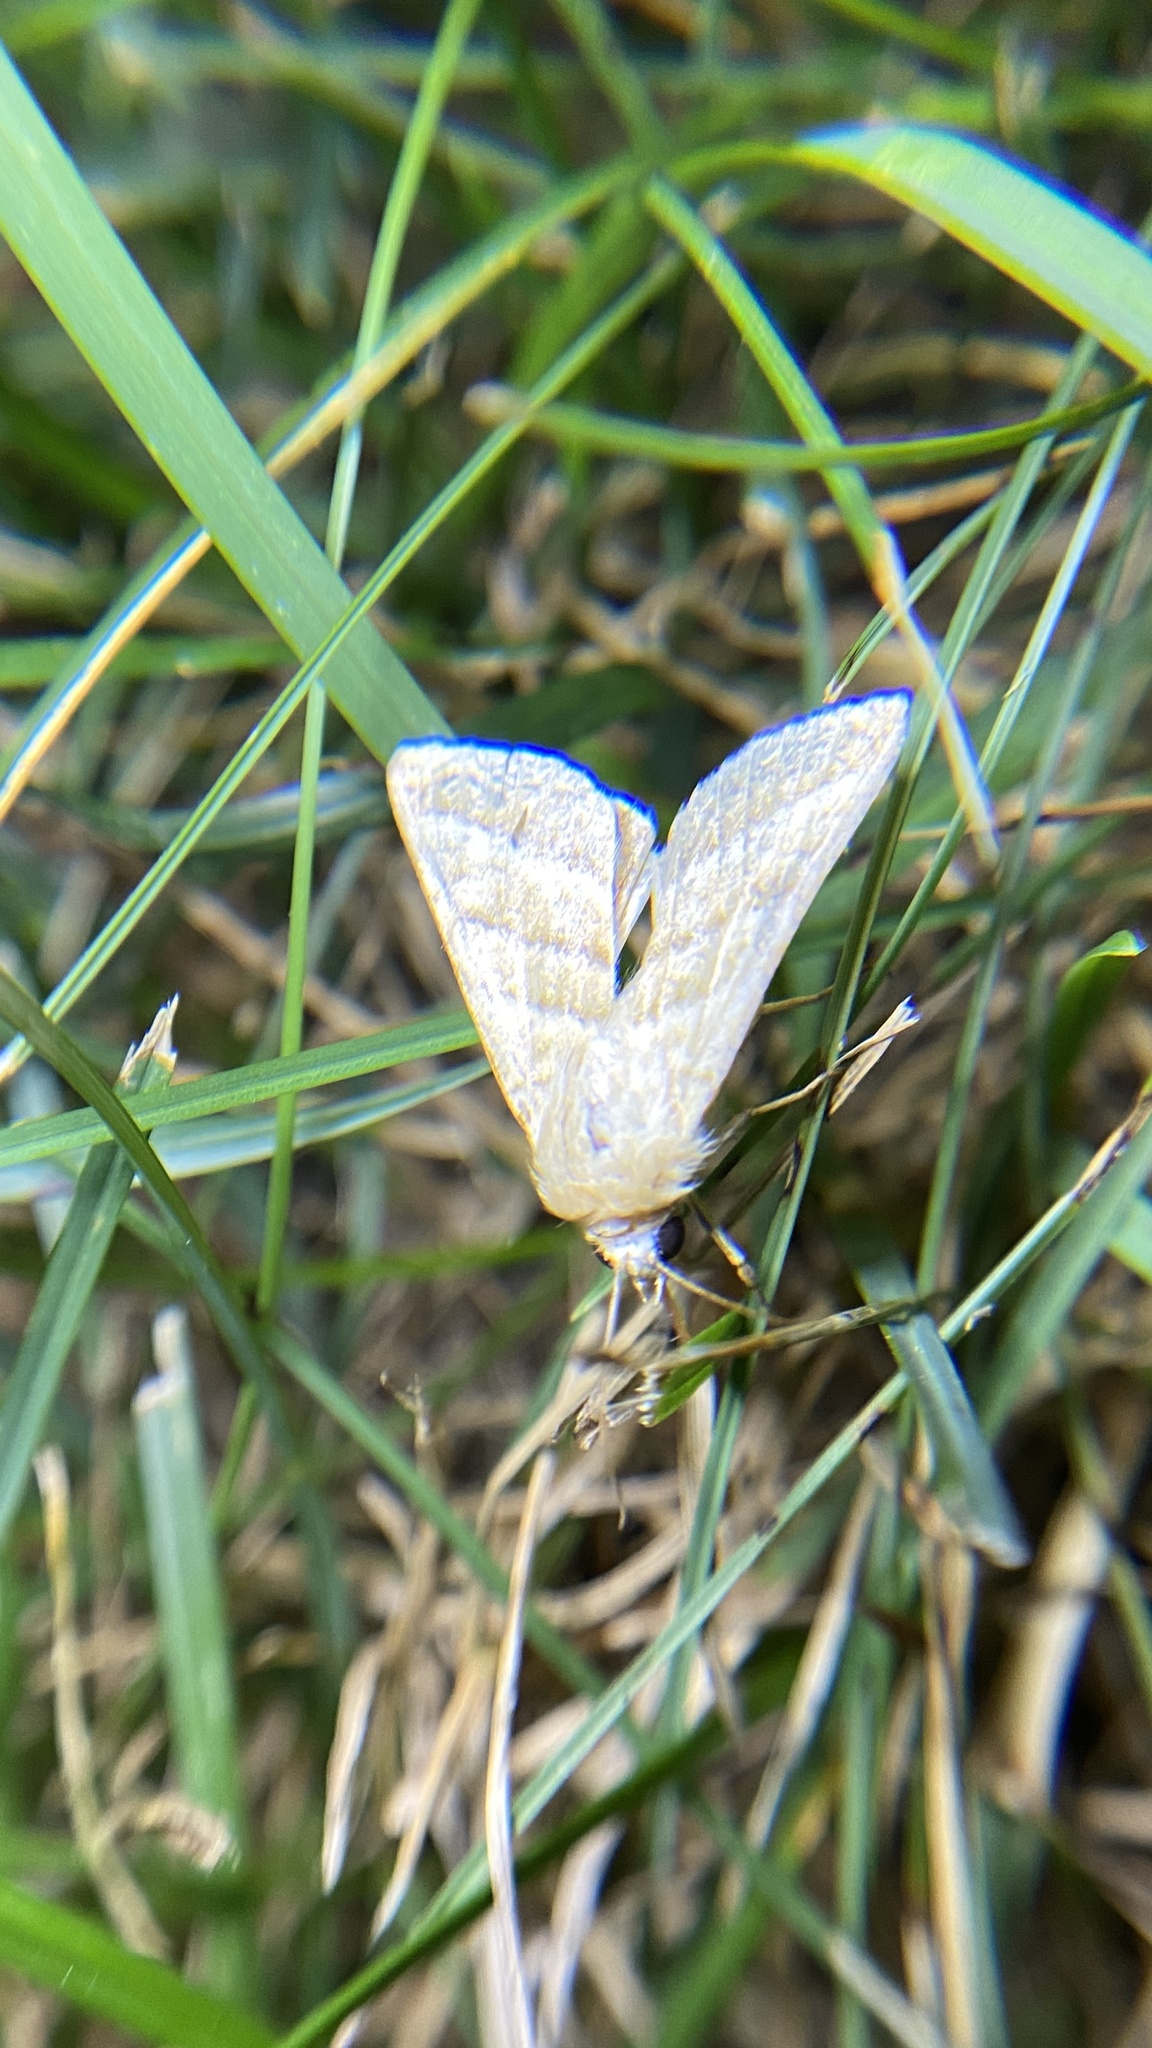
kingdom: Animalia
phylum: Arthropoda
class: Insecta
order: Lepidoptera
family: Noctuidae
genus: Protodeltote
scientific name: Protodeltote albidula
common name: Pale glyph
